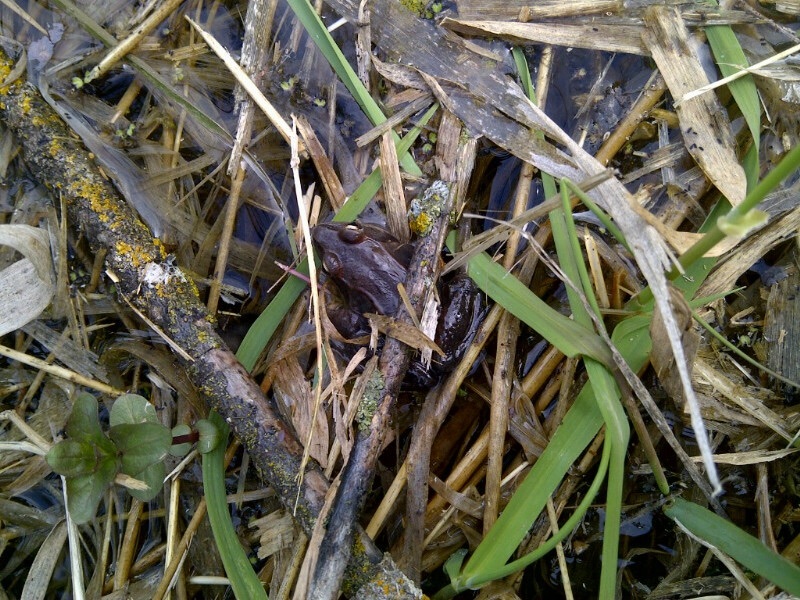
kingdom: Animalia
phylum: Chordata
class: Amphibia
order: Anura
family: Ranidae
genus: Lithobates
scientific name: Lithobates sylvaticus
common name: Wood frog
